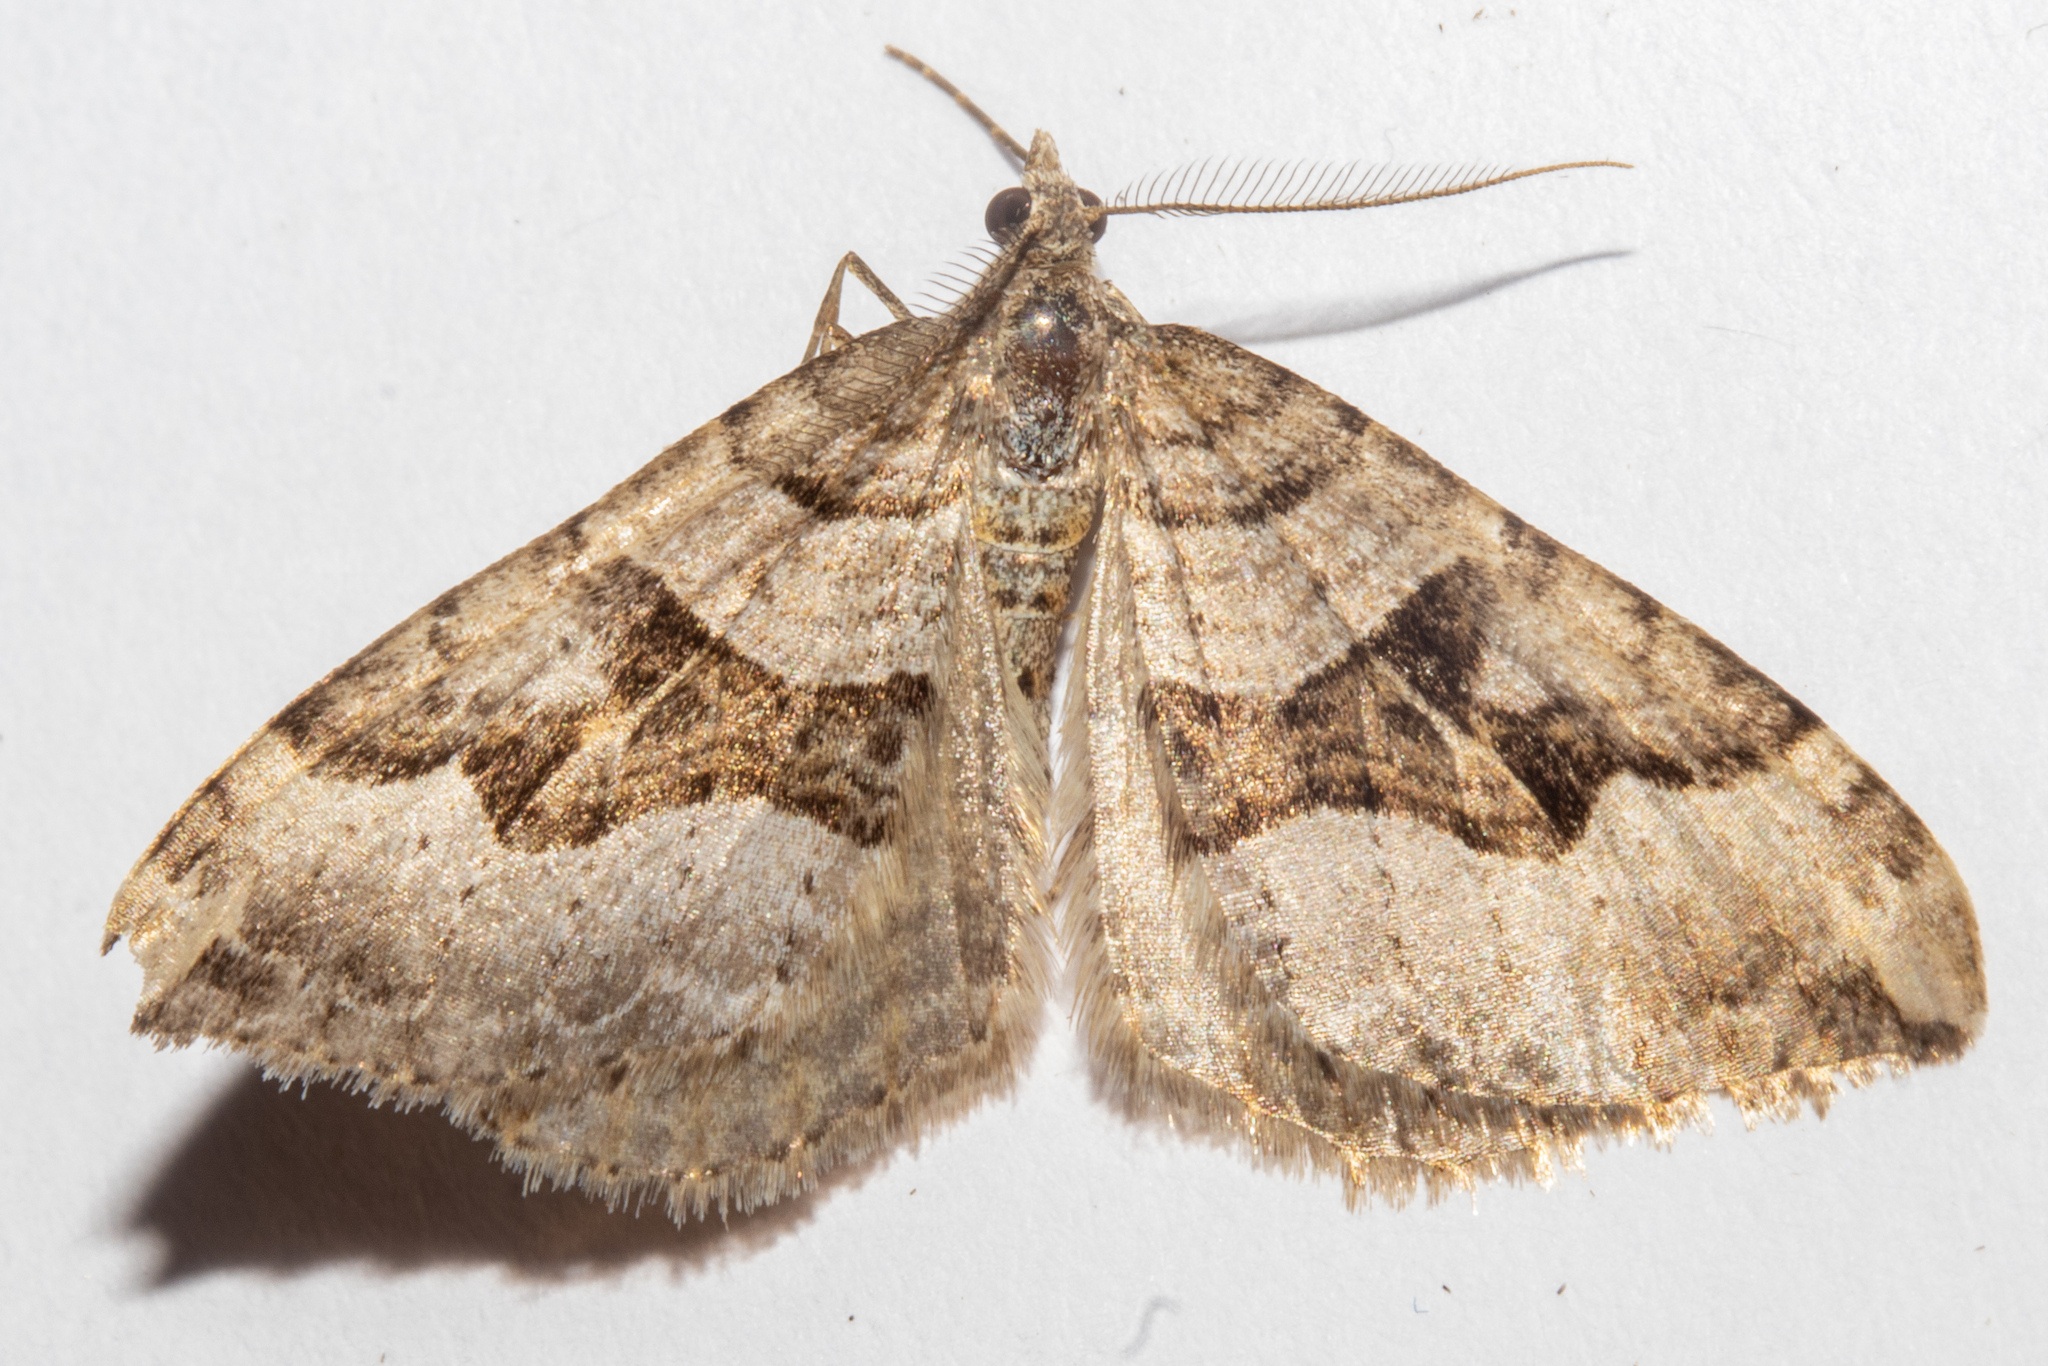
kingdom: Animalia
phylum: Arthropoda
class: Insecta
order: Lepidoptera
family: Geometridae
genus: Xanthorhoe
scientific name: Xanthorhoe semifissata
